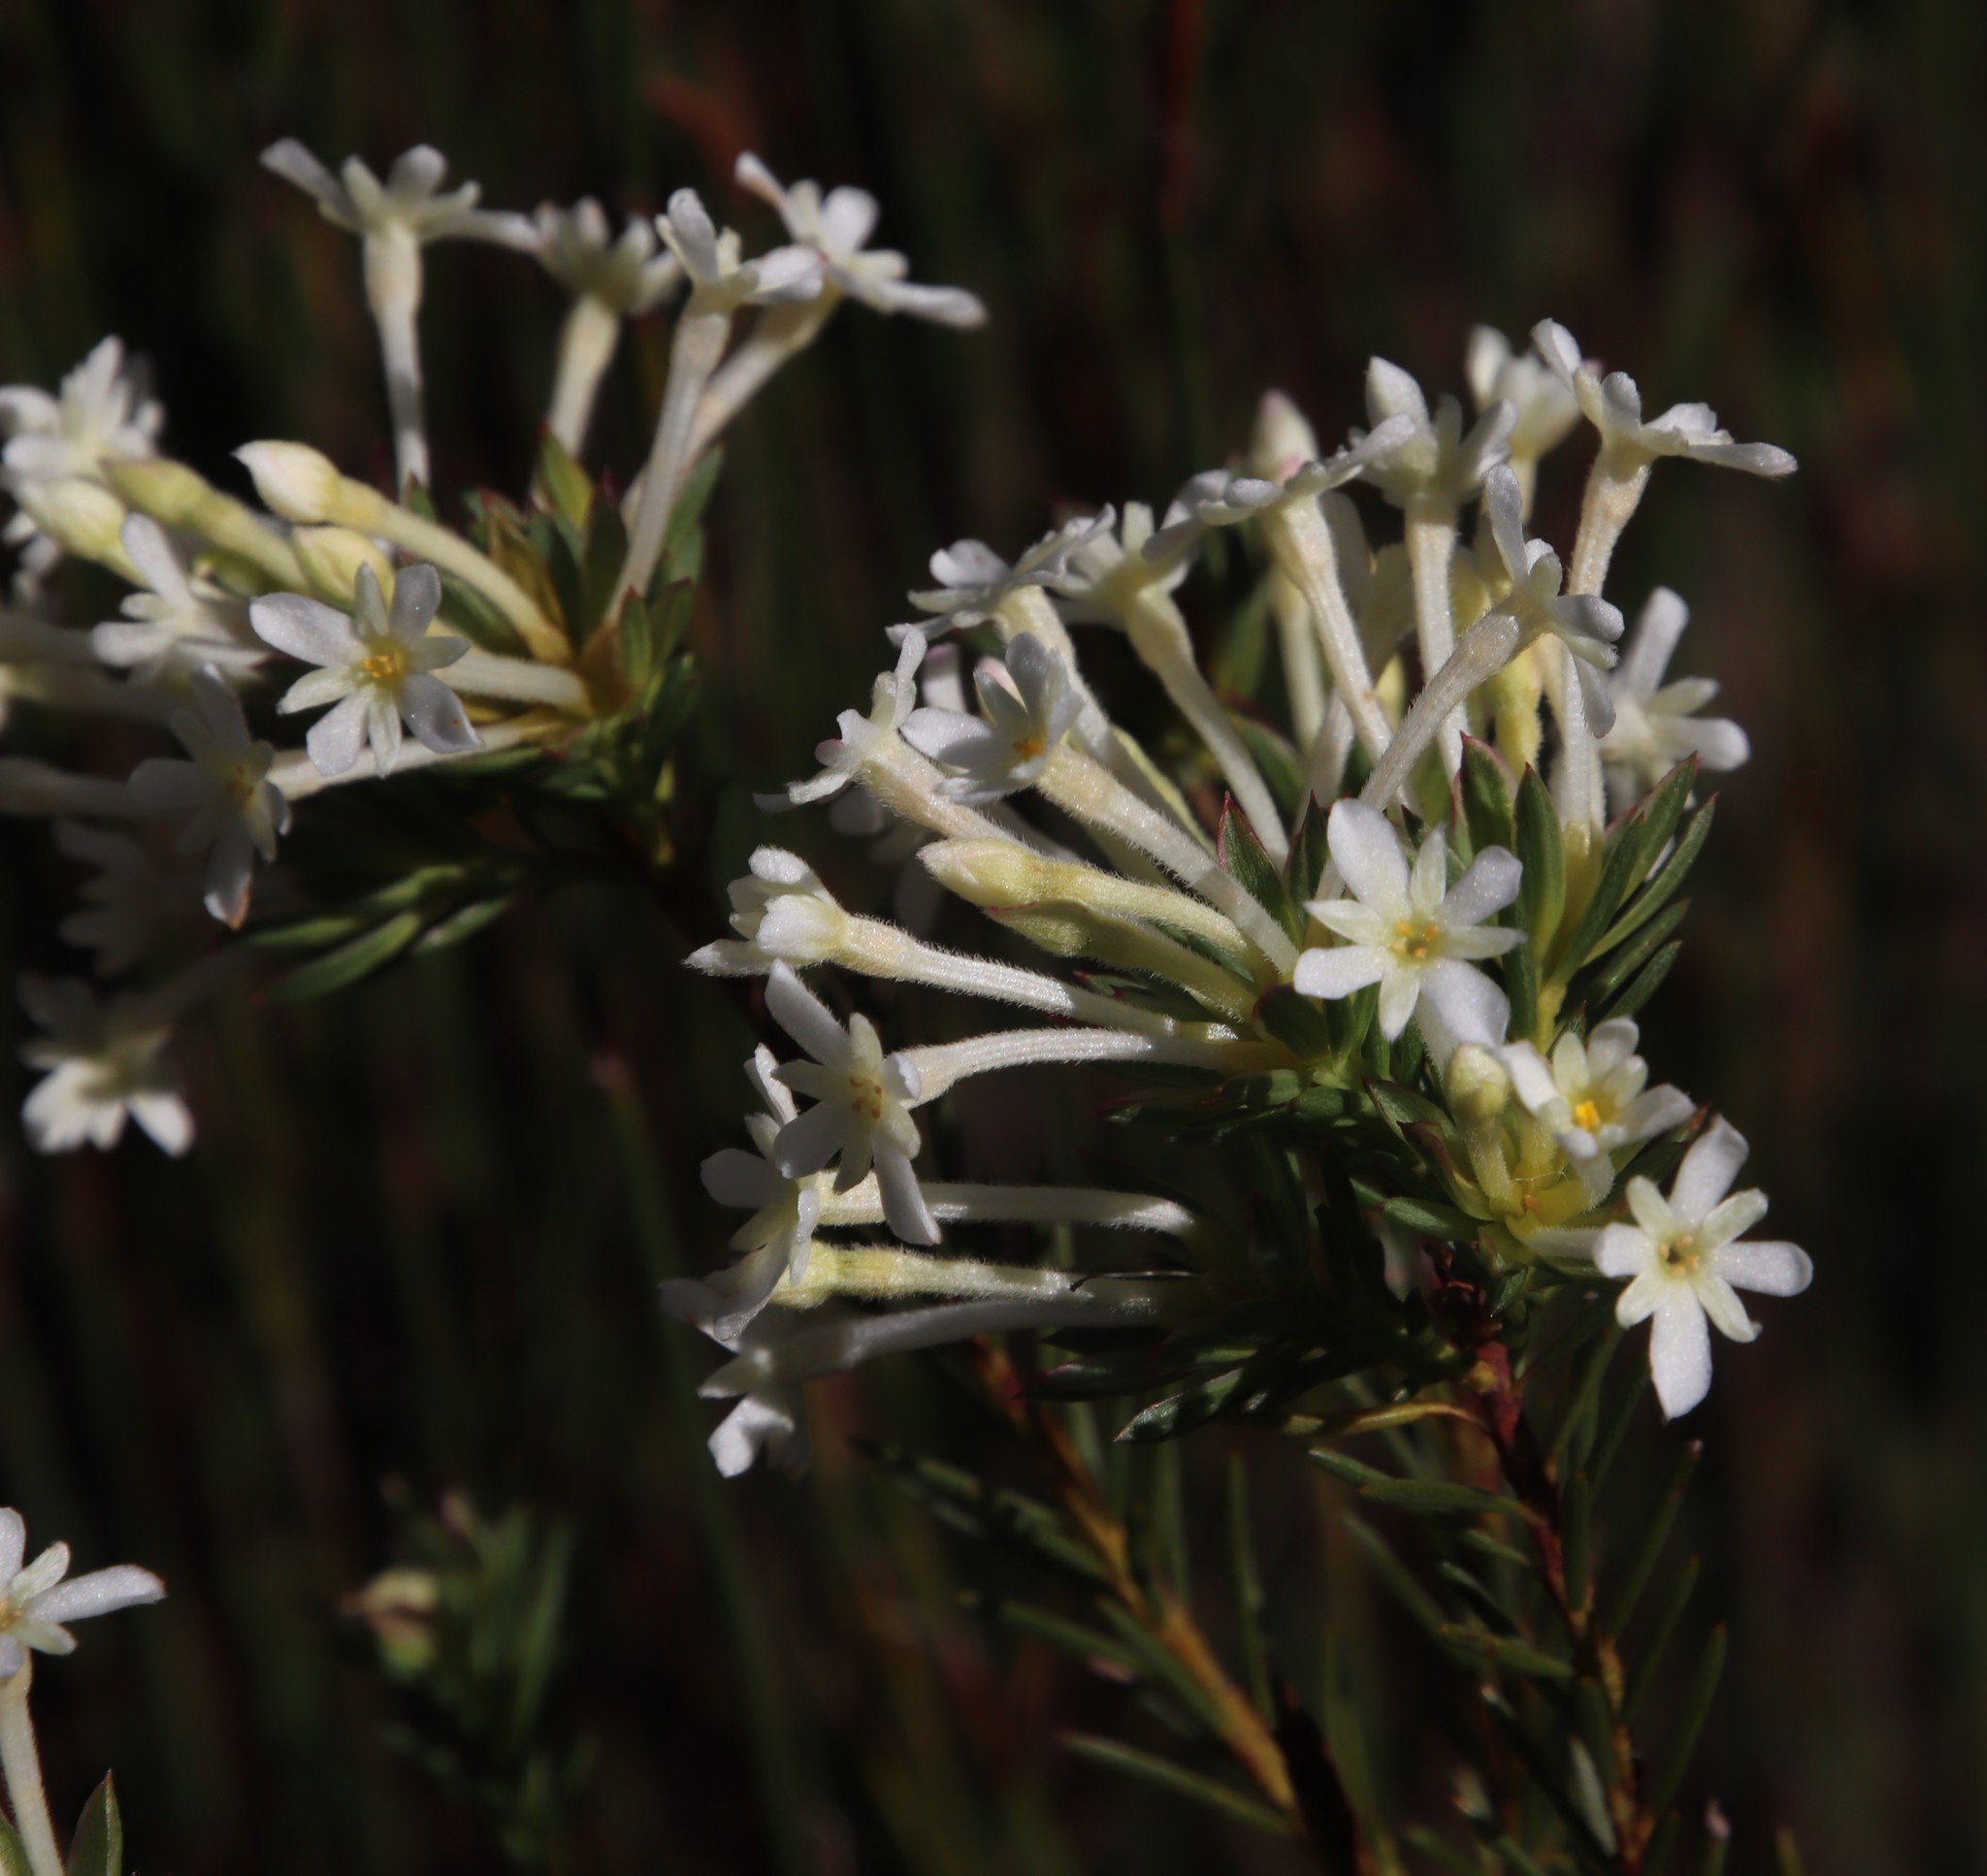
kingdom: Plantae
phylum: Tracheophyta
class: Magnoliopsida
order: Malvales
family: Thymelaeaceae
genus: Gnidia
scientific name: Gnidia pinifolia
